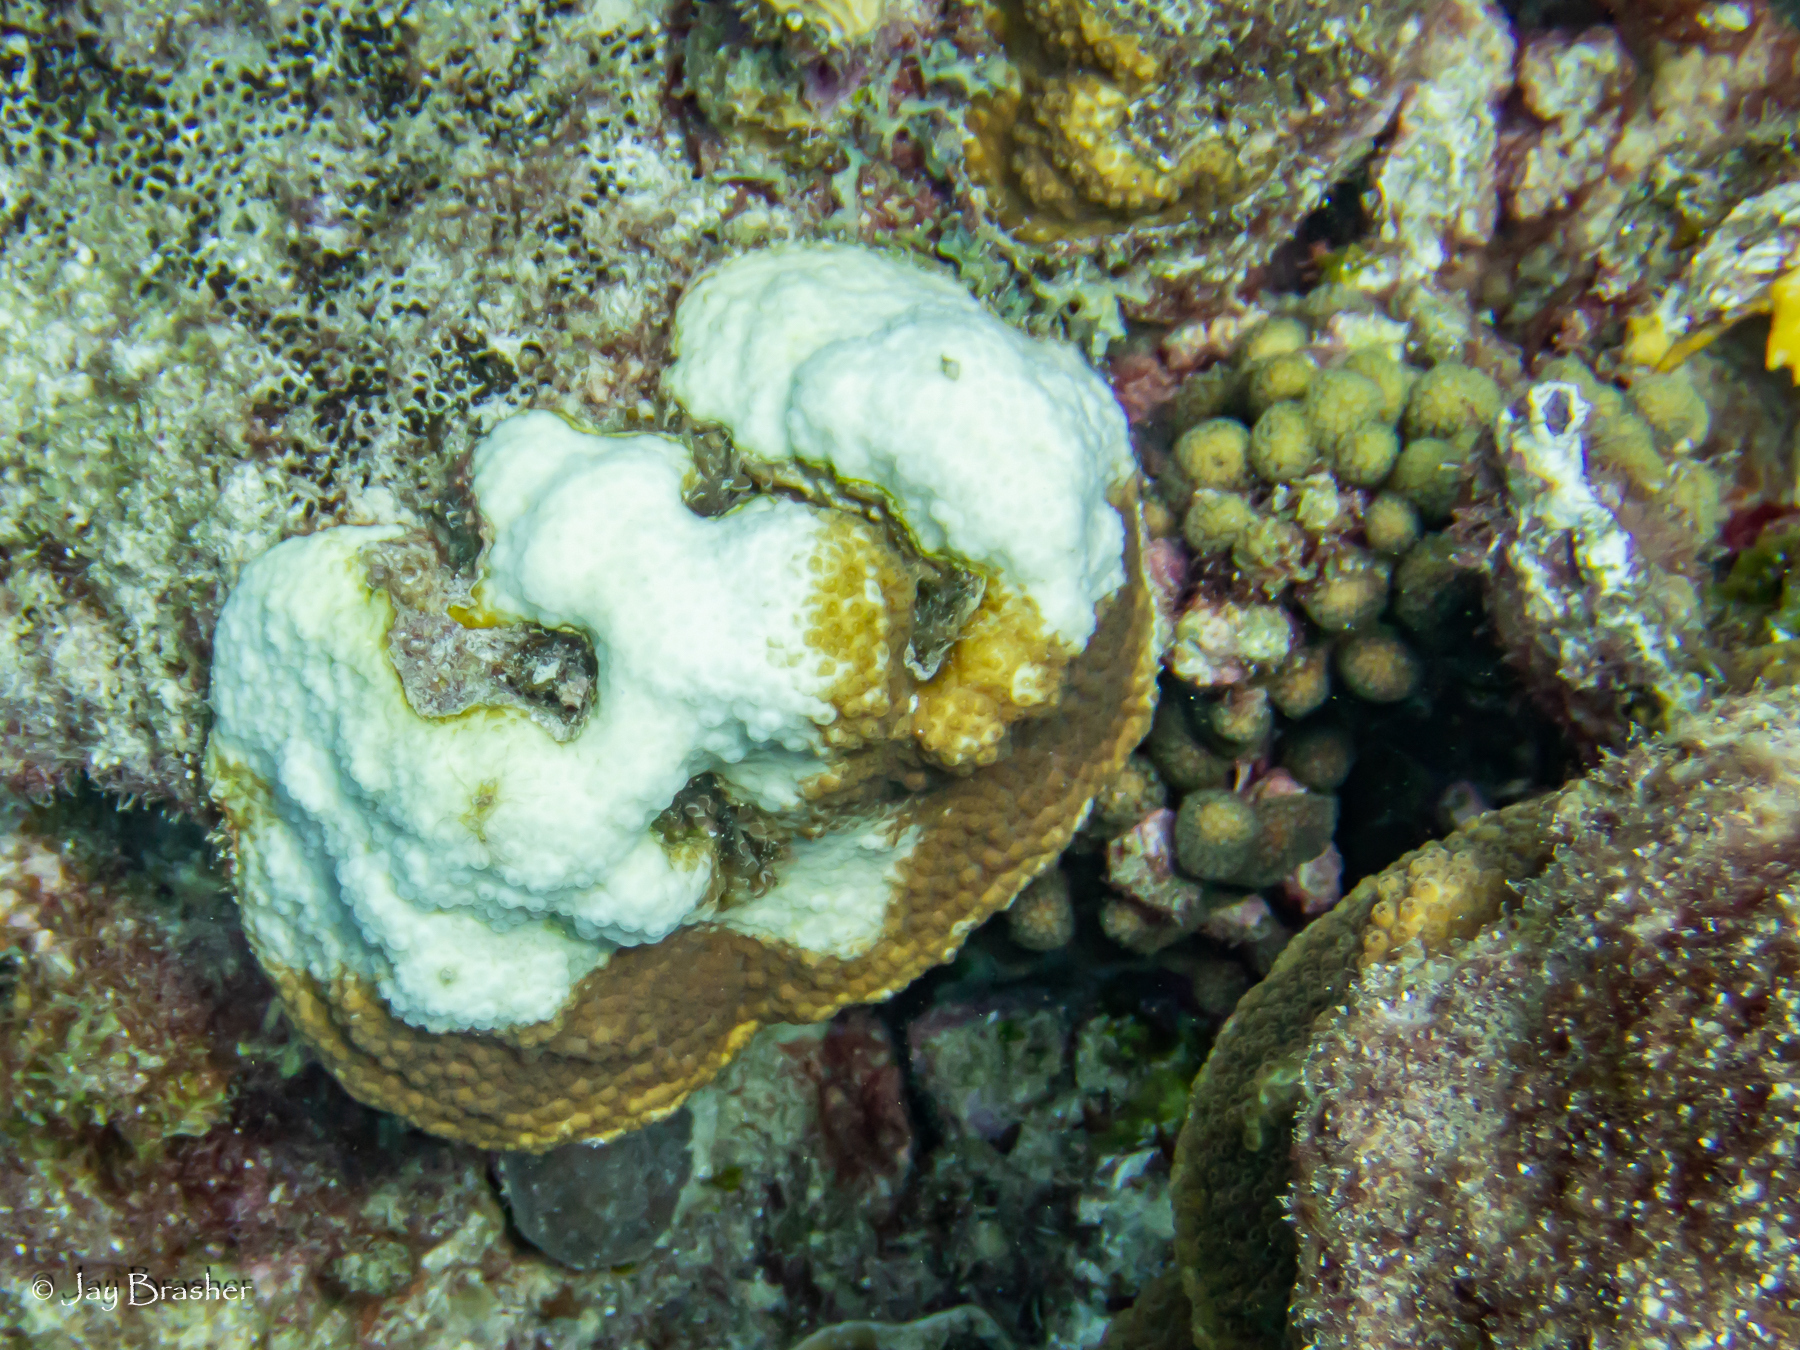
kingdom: Animalia
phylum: Cnidaria
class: Anthozoa
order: Scleractinia
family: Pocilloporidae
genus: Madracis
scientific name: Madracis decactis
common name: Ten-ray star coral
